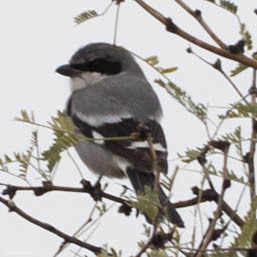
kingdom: Animalia
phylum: Chordata
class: Aves
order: Passeriformes
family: Laniidae
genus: Lanius
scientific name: Lanius ludovicianus
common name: Loggerhead shrike
